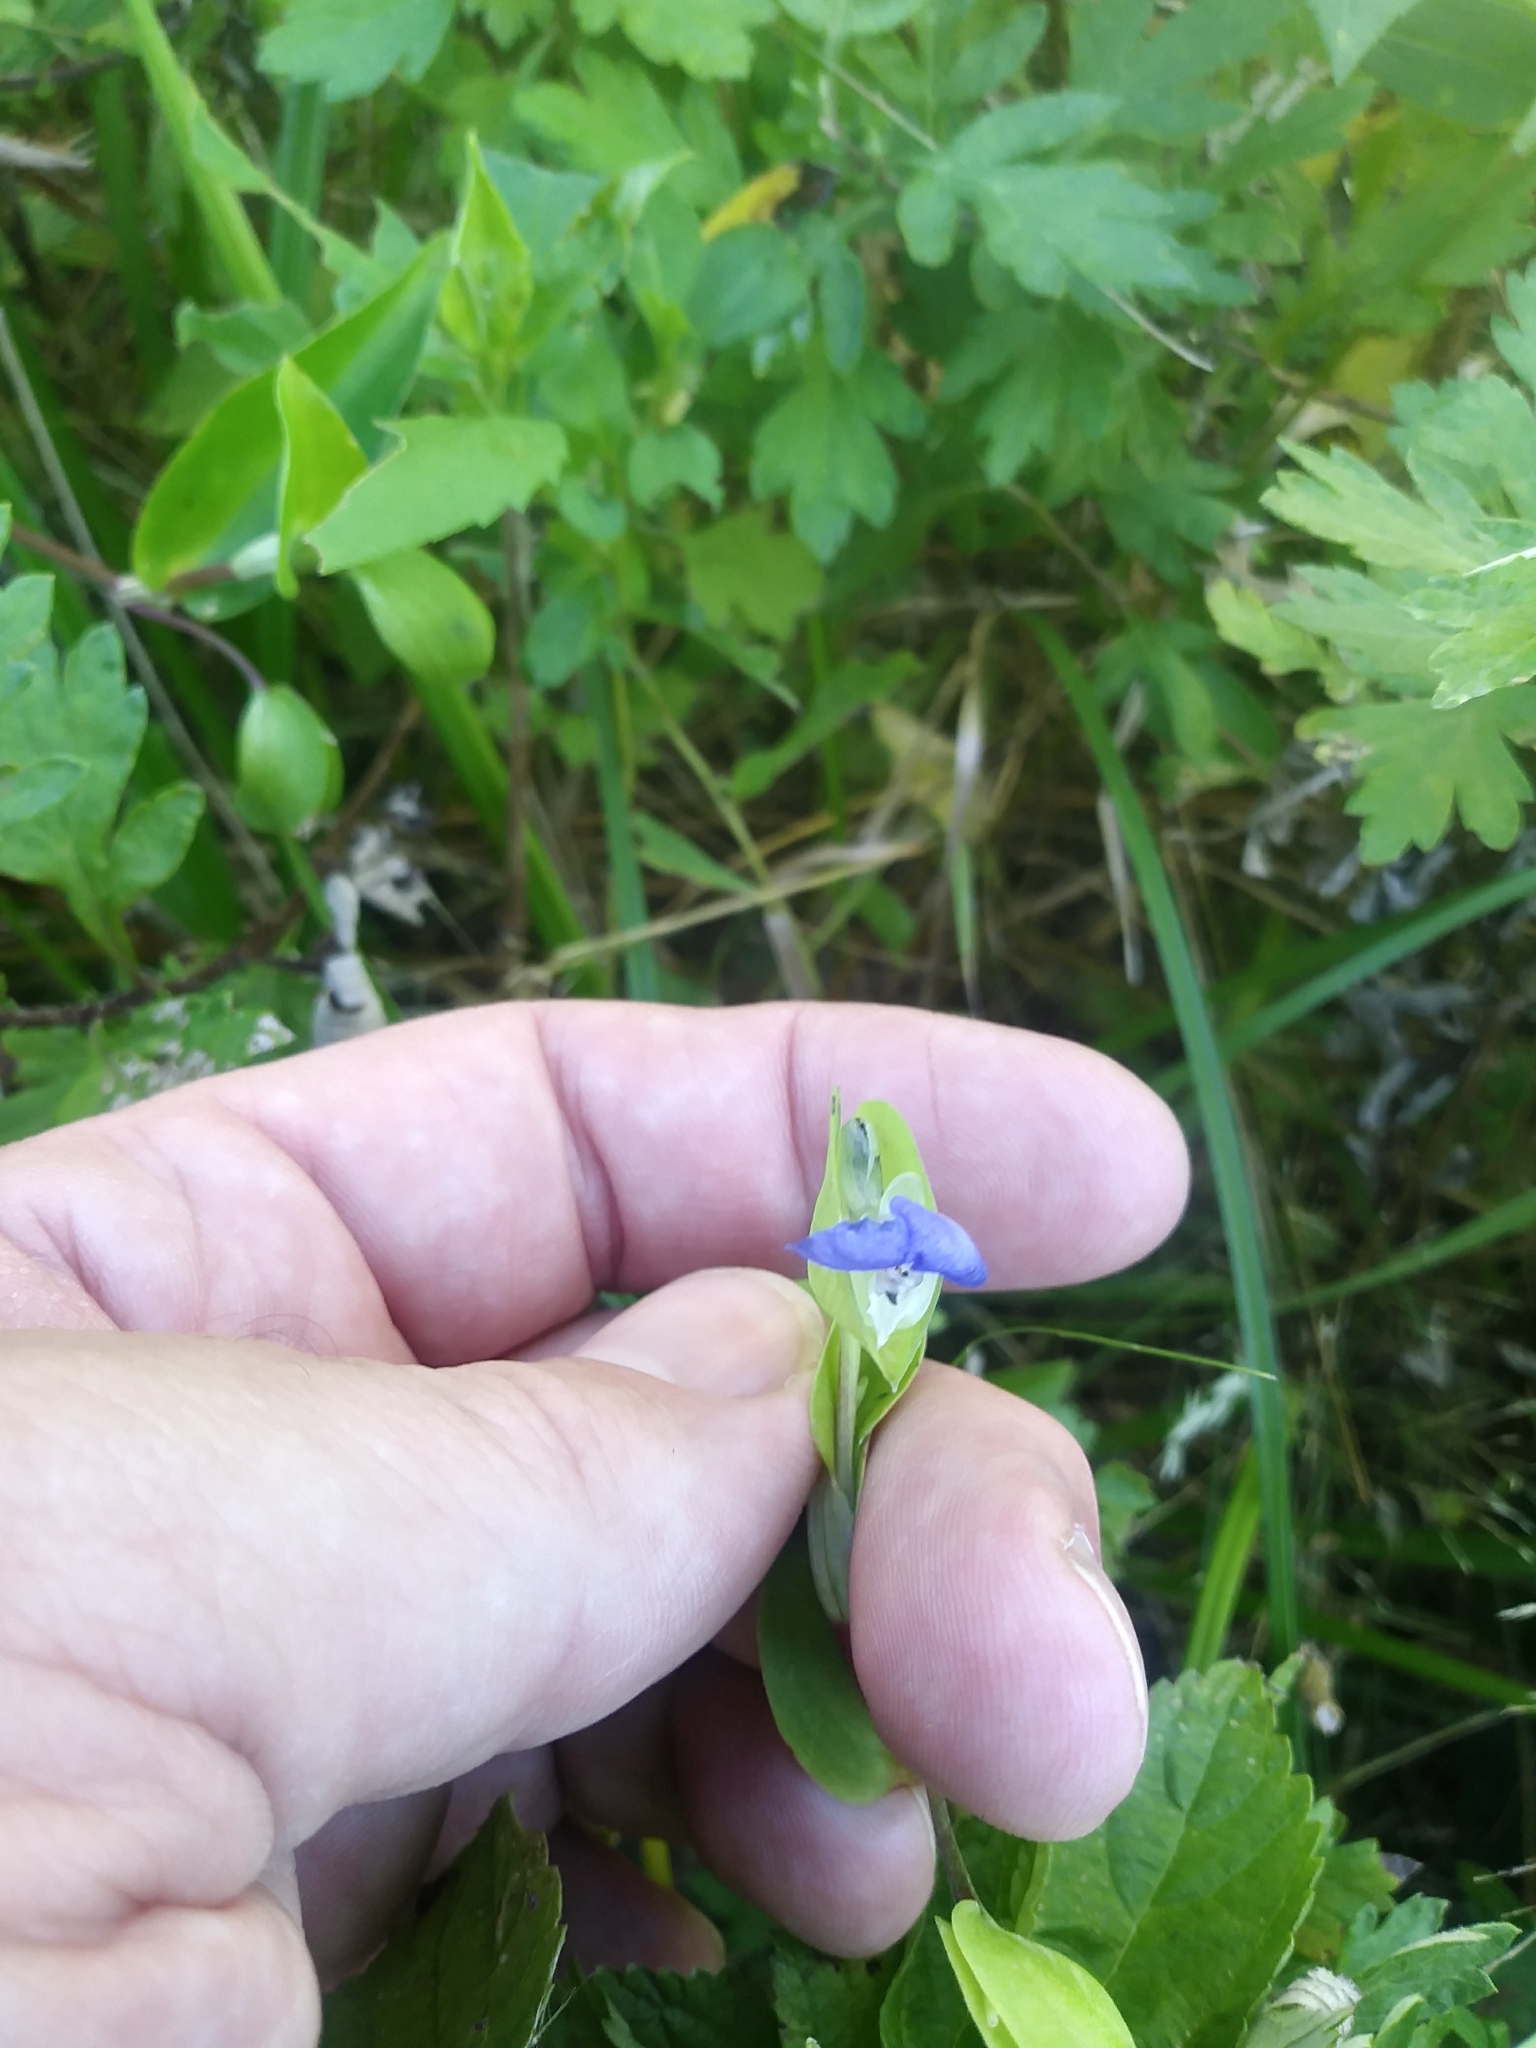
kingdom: Plantae
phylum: Tracheophyta
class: Liliopsida
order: Commelinales
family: Commelinaceae
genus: Commelina
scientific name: Commelina communis
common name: Asiatic dayflower
